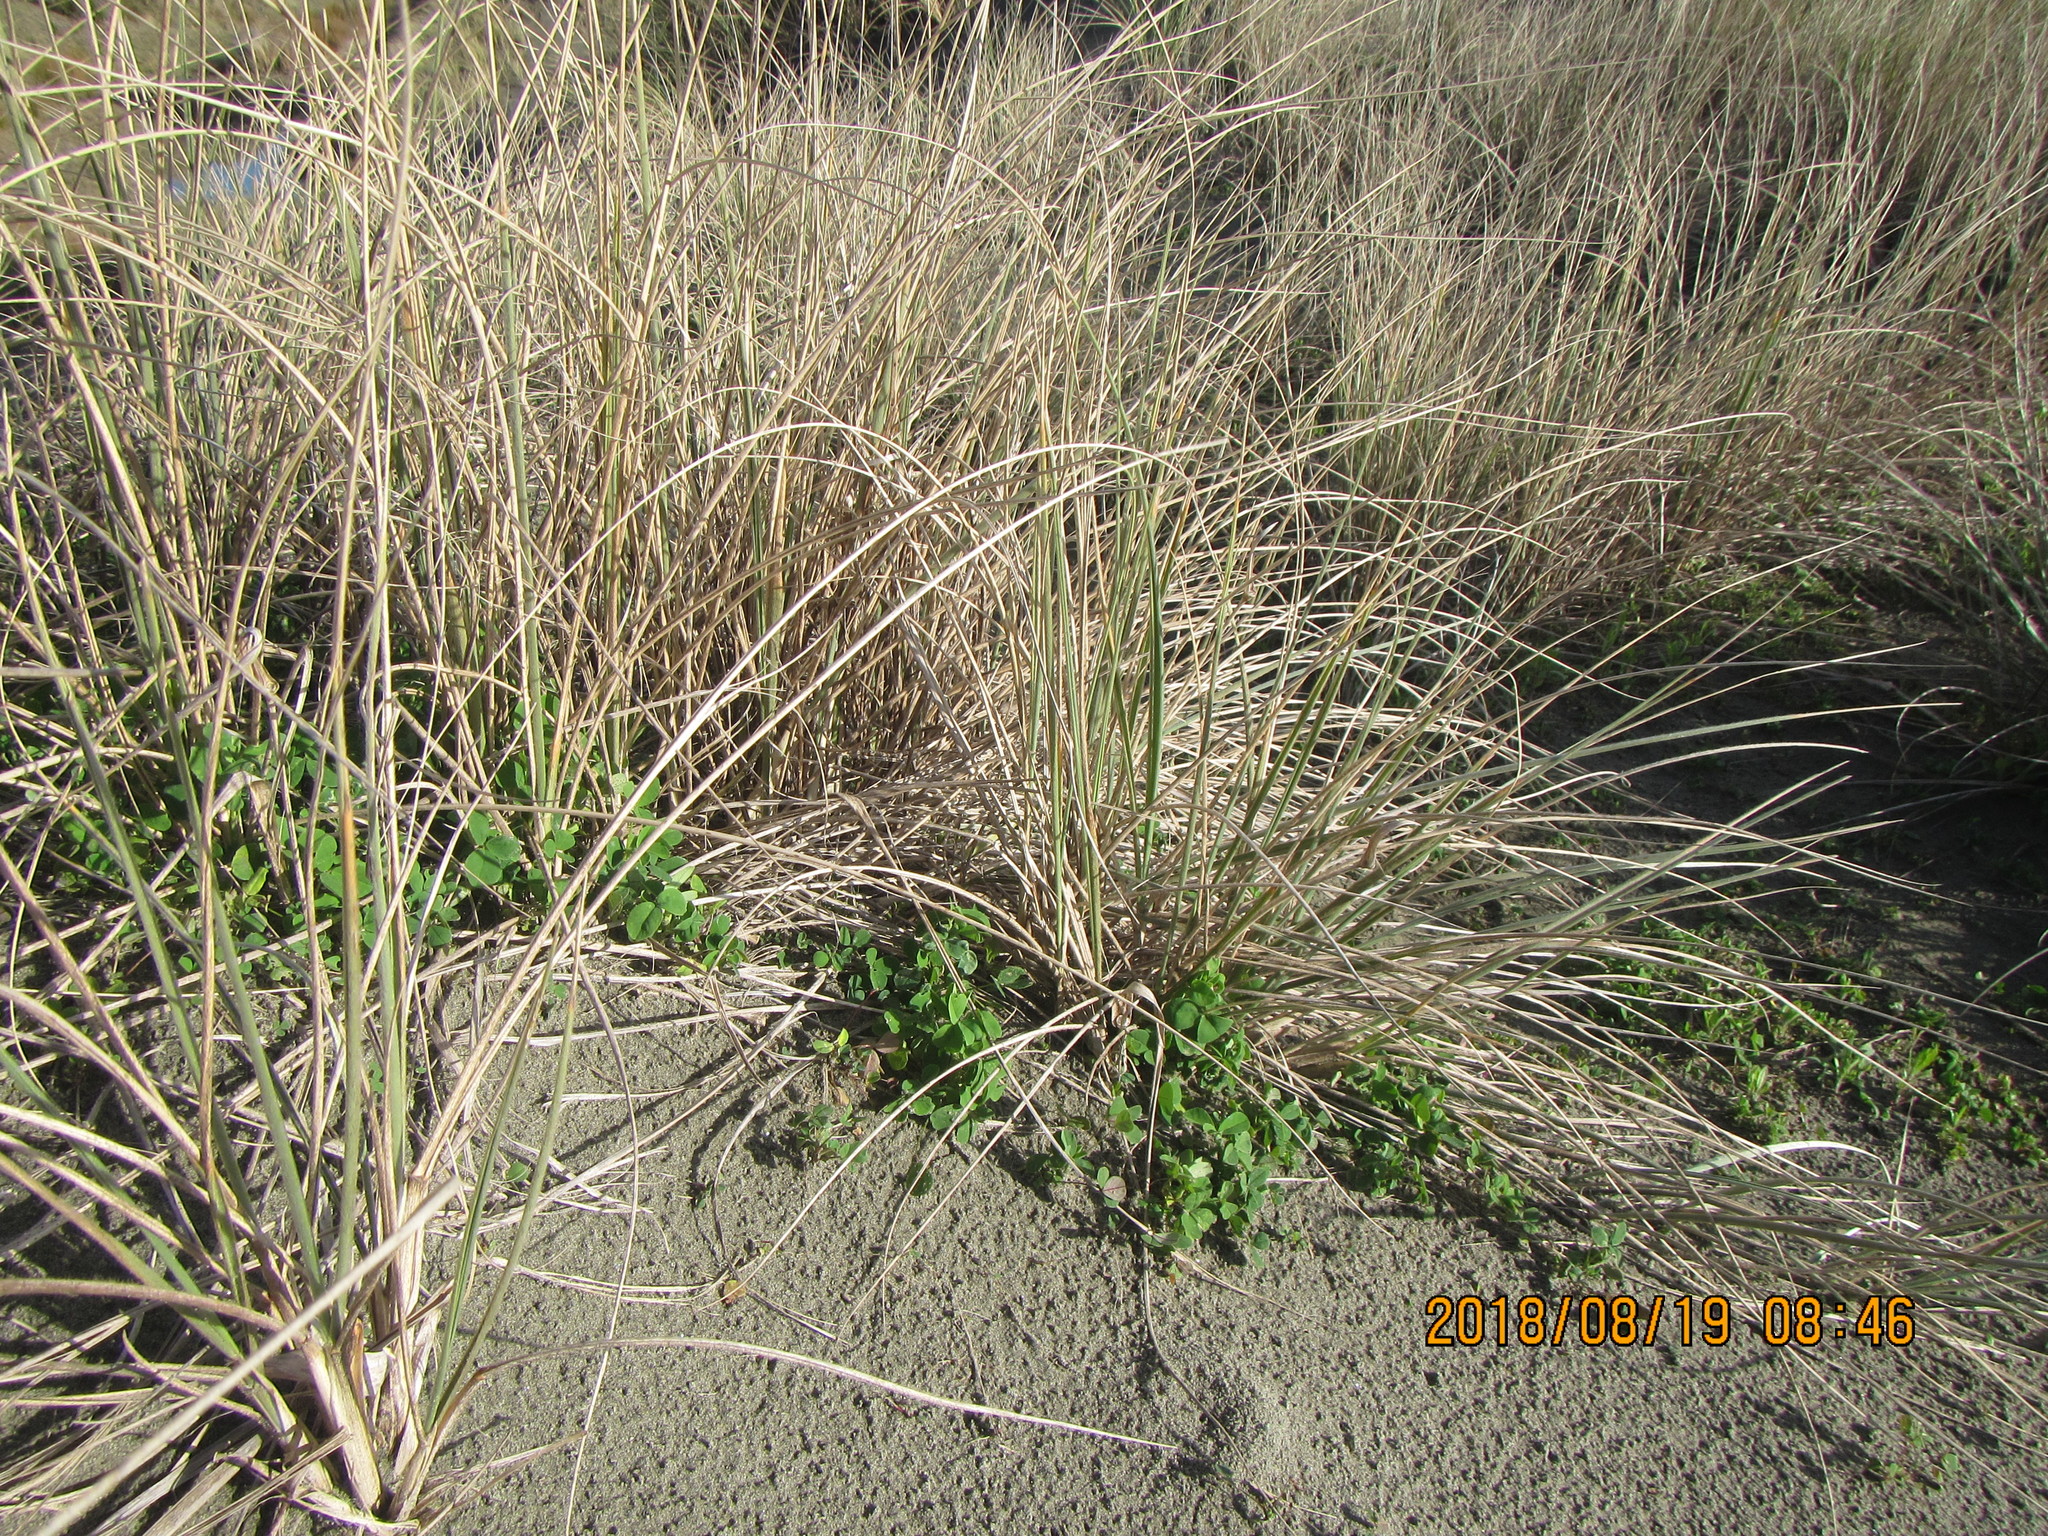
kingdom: Plantae
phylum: Tracheophyta
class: Liliopsida
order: Poales
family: Poaceae
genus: Spinifex
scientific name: Spinifex sericeus
